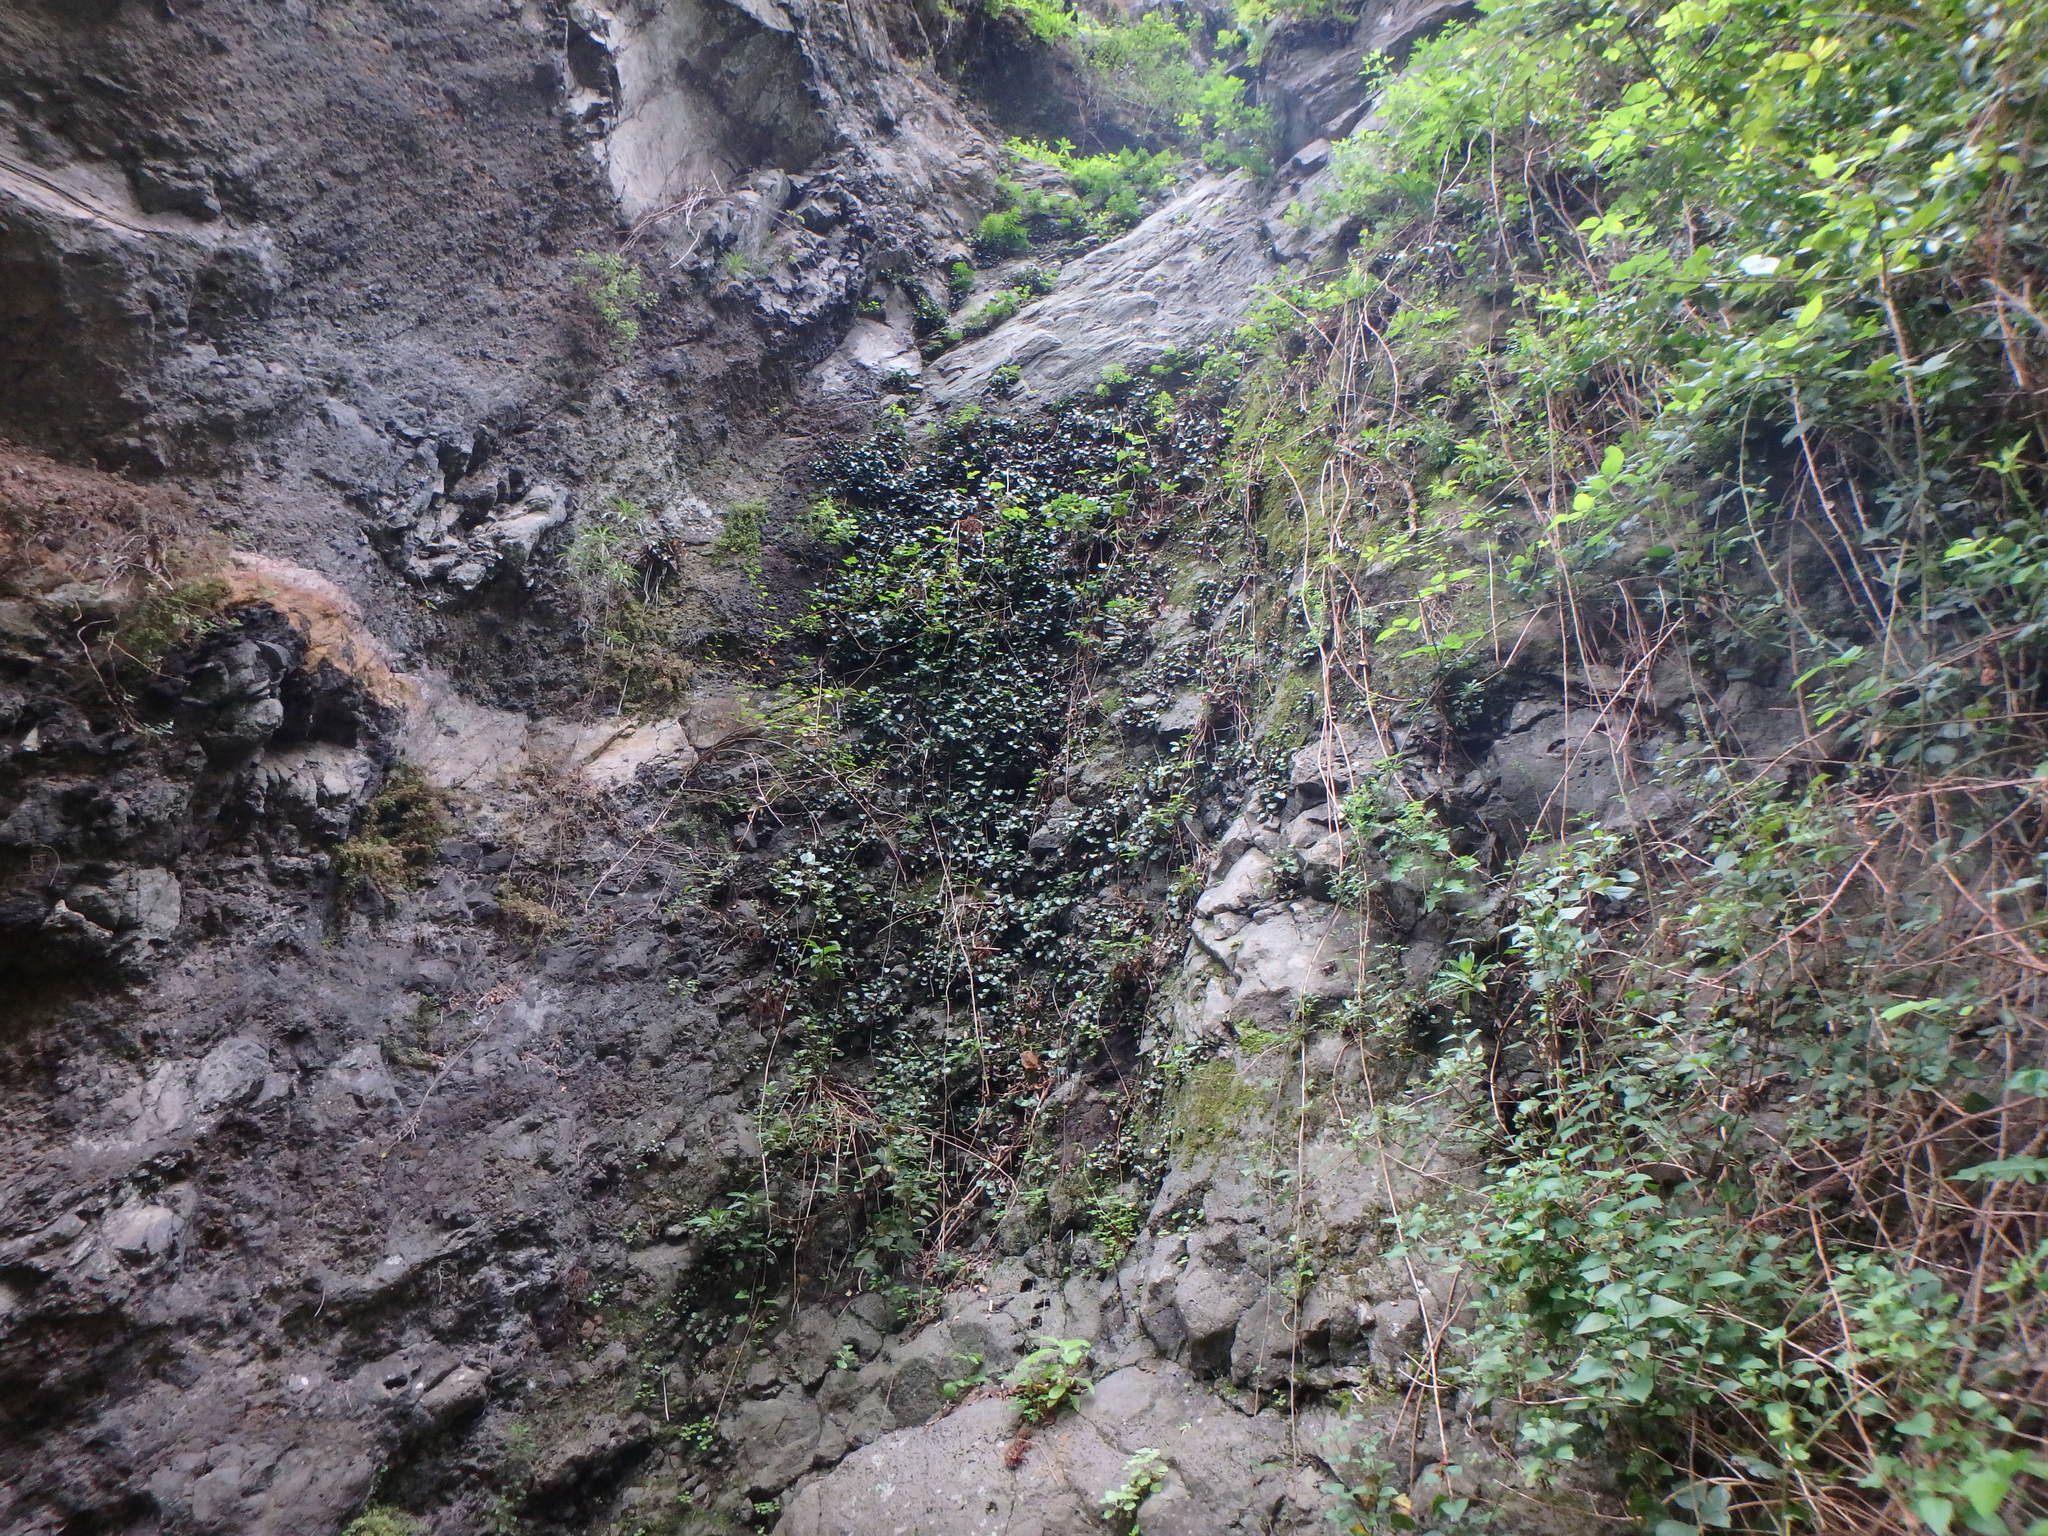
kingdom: Plantae
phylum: Tracheophyta
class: Polypodiopsida
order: Polypodiales
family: Pteridaceae
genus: Adiantum
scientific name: Adiantum reniforme
